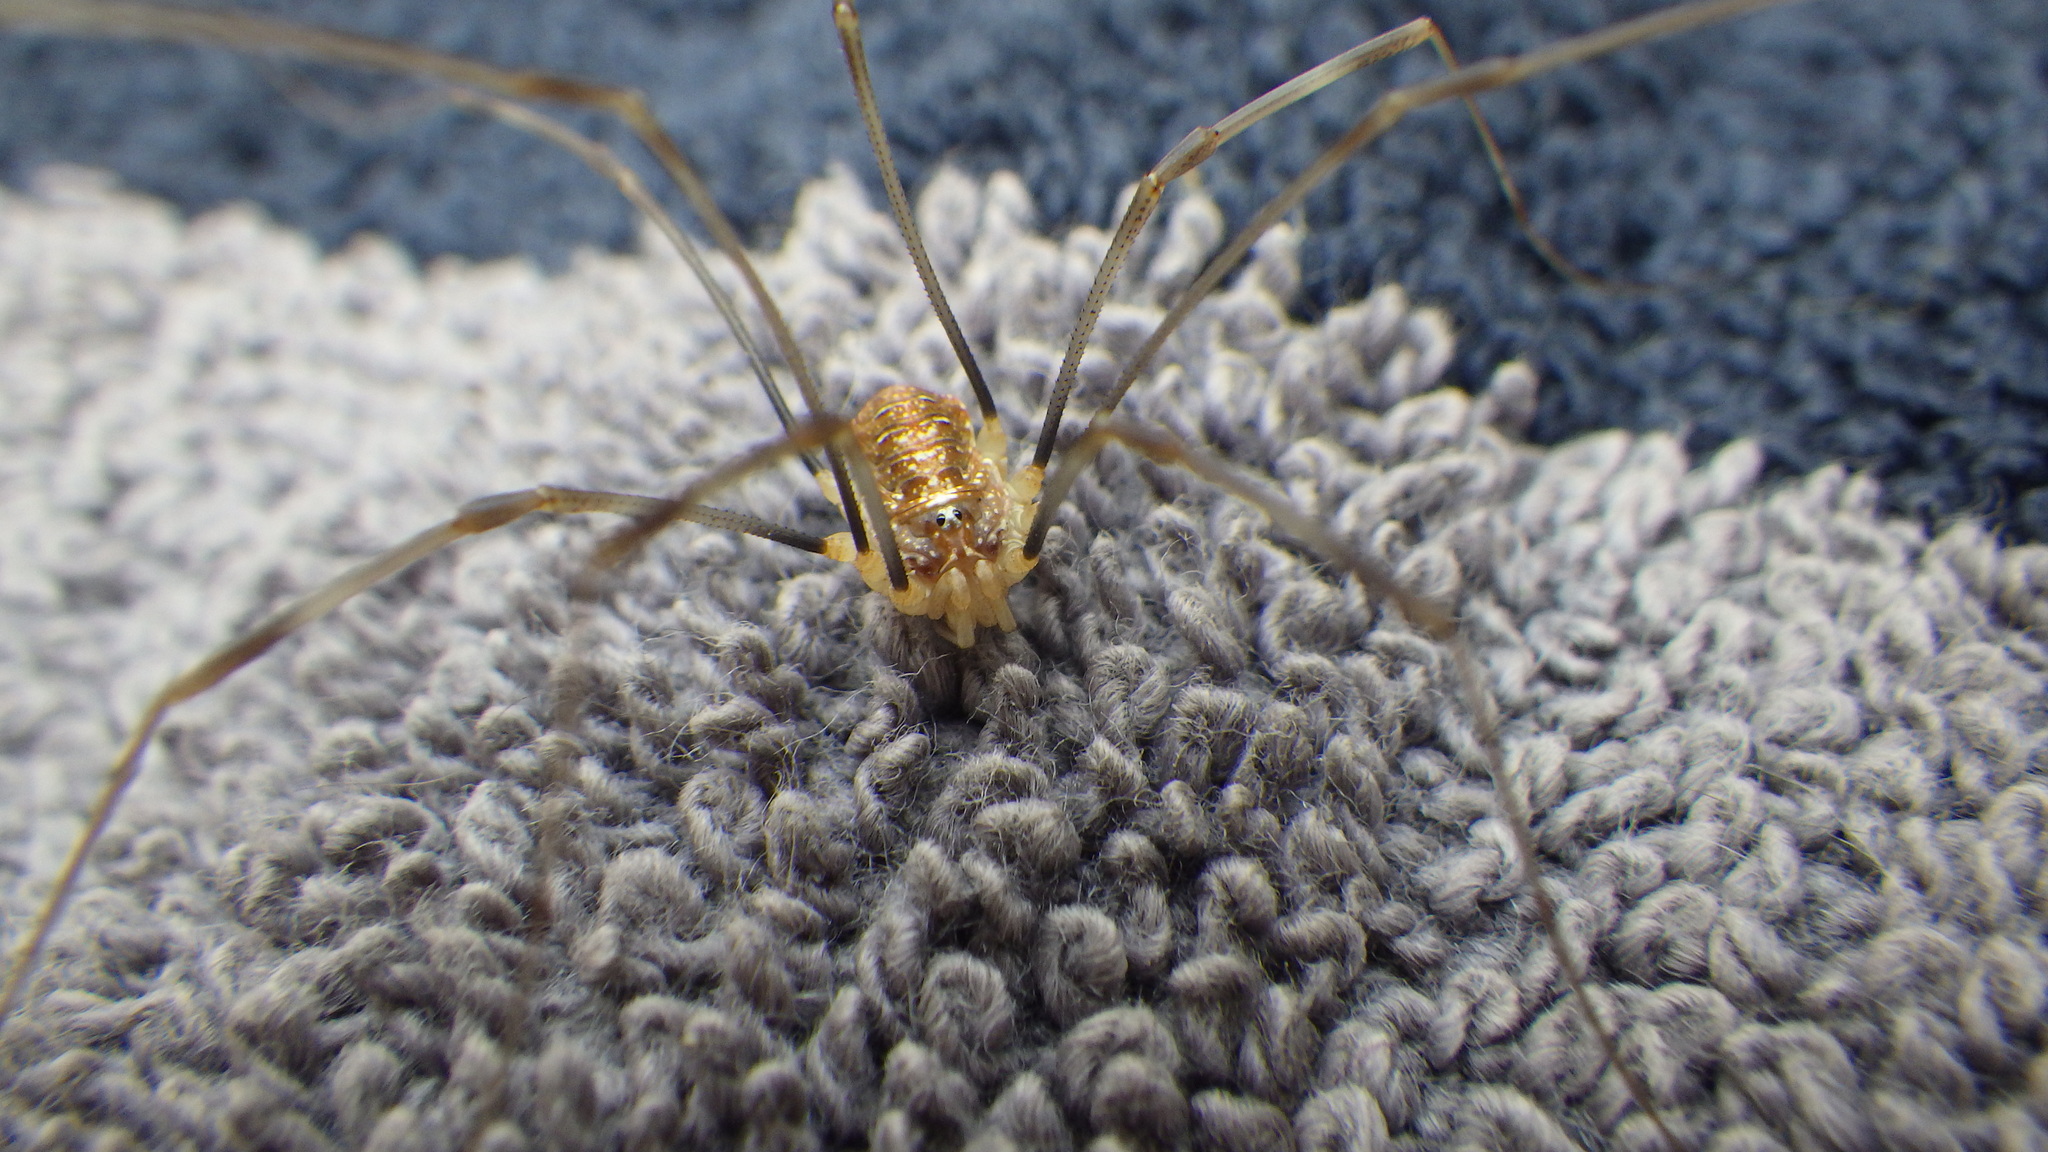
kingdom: Animalia
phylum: Arthropoda
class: Arachnida
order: Opiliones
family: Phalangiidae
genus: Opilio
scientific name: Opilio canestrinii
